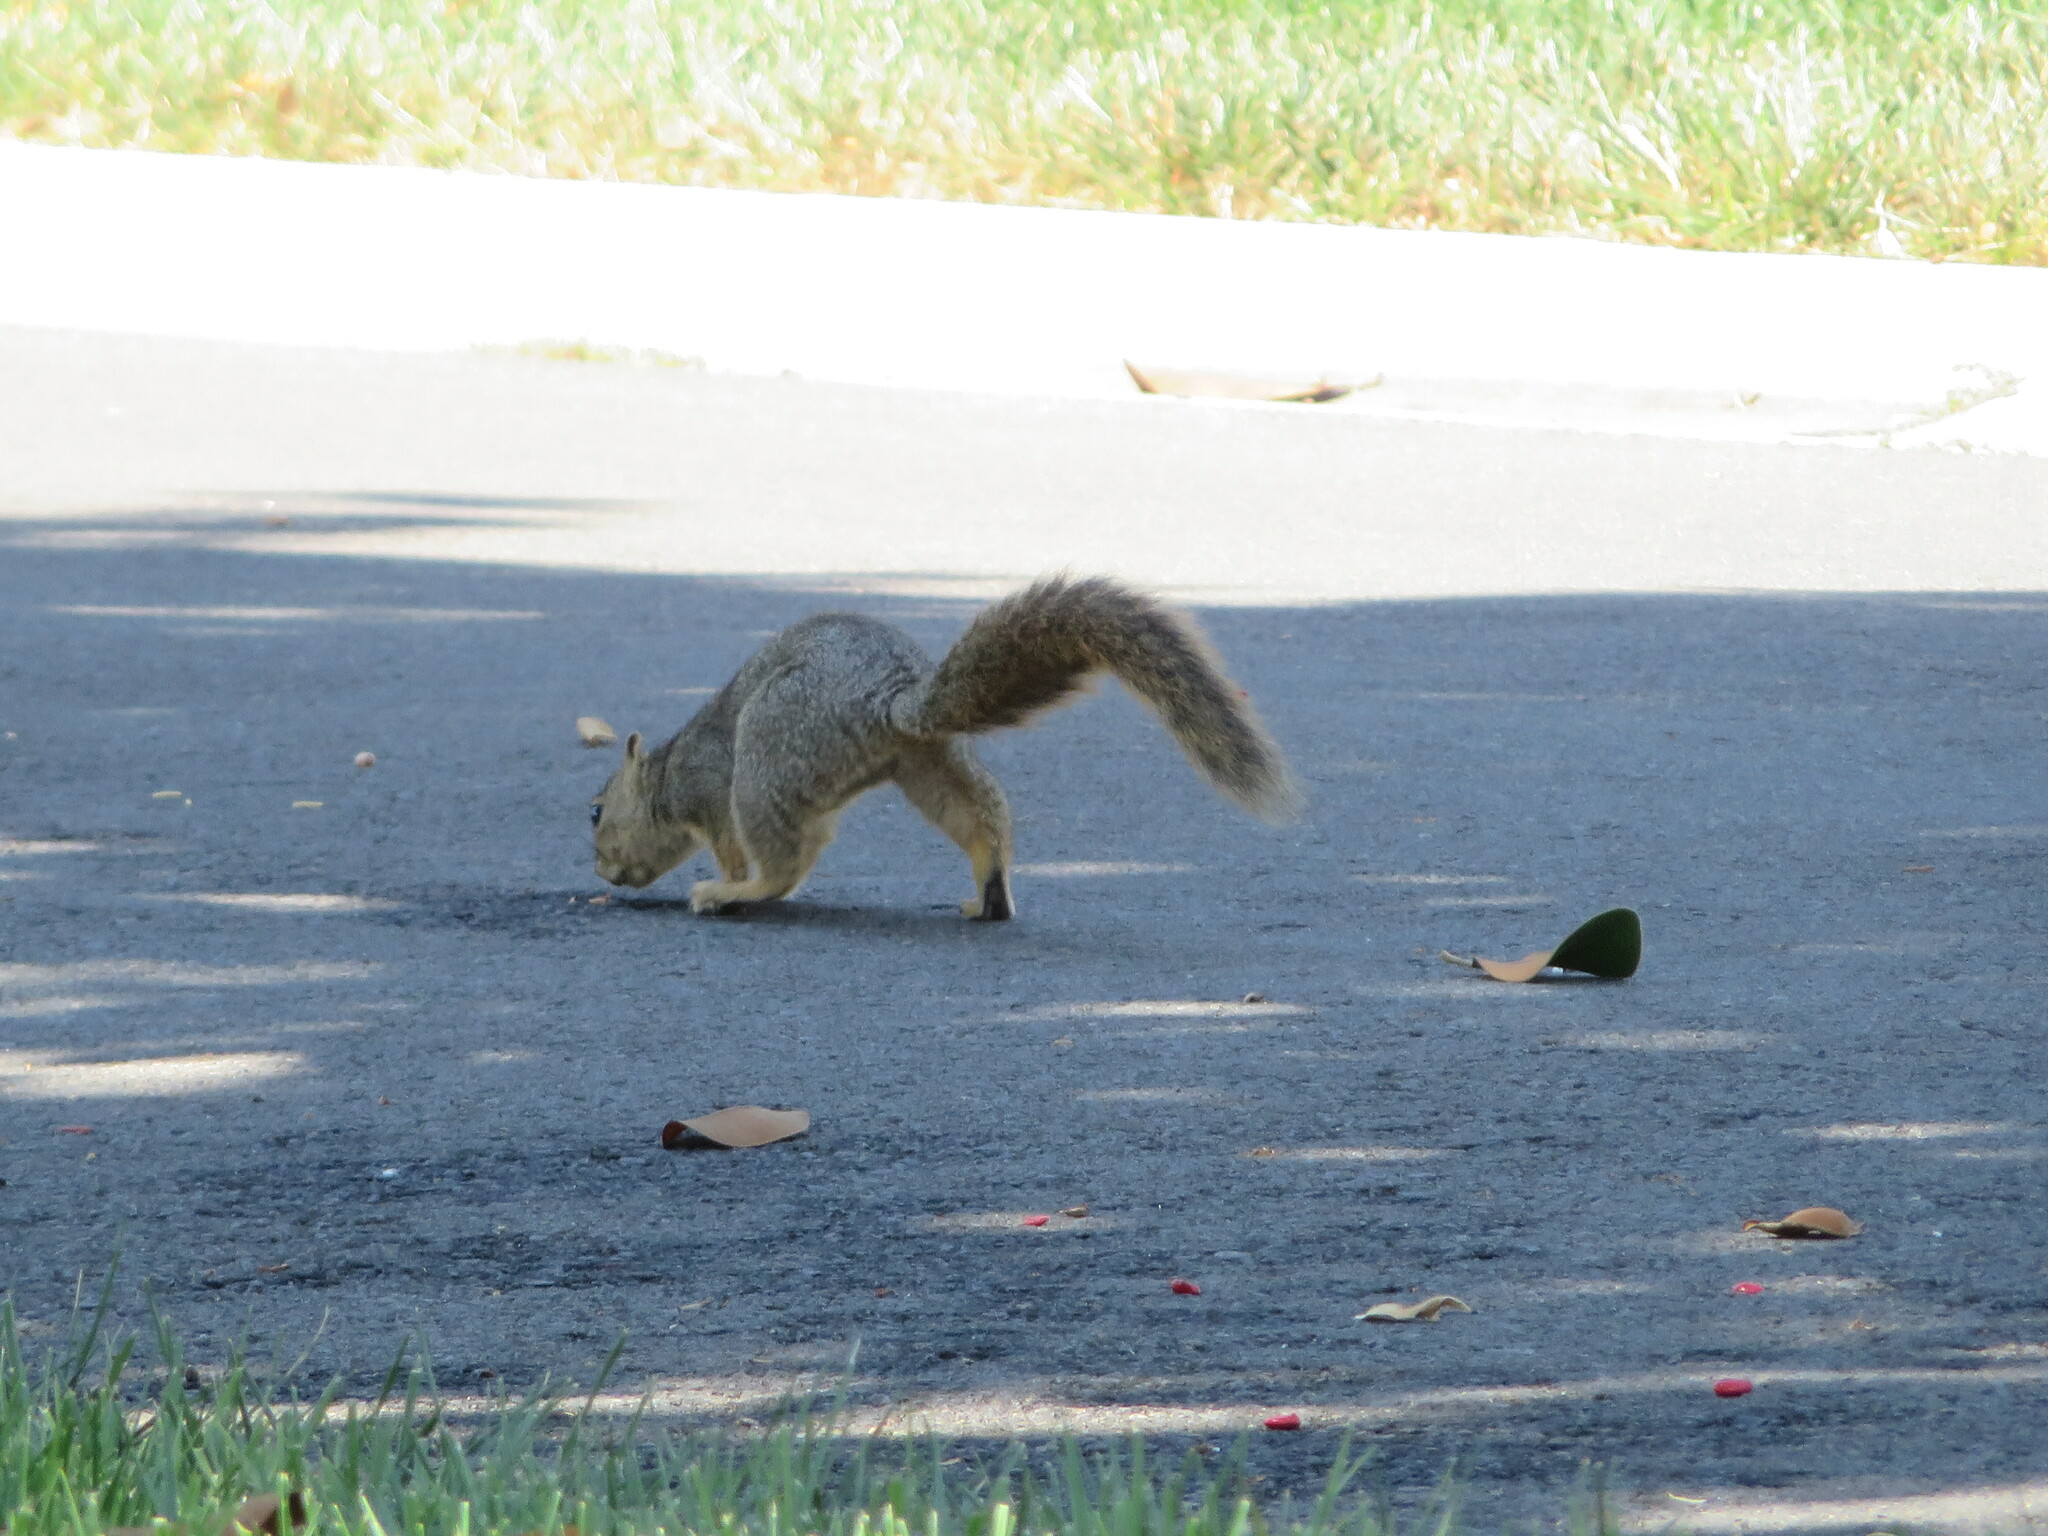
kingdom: Animalia
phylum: Chordata
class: Mammalia
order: Rodentia
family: Sciuridae
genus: Sciurus
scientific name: Sciurus niger
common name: Fox squirrel
